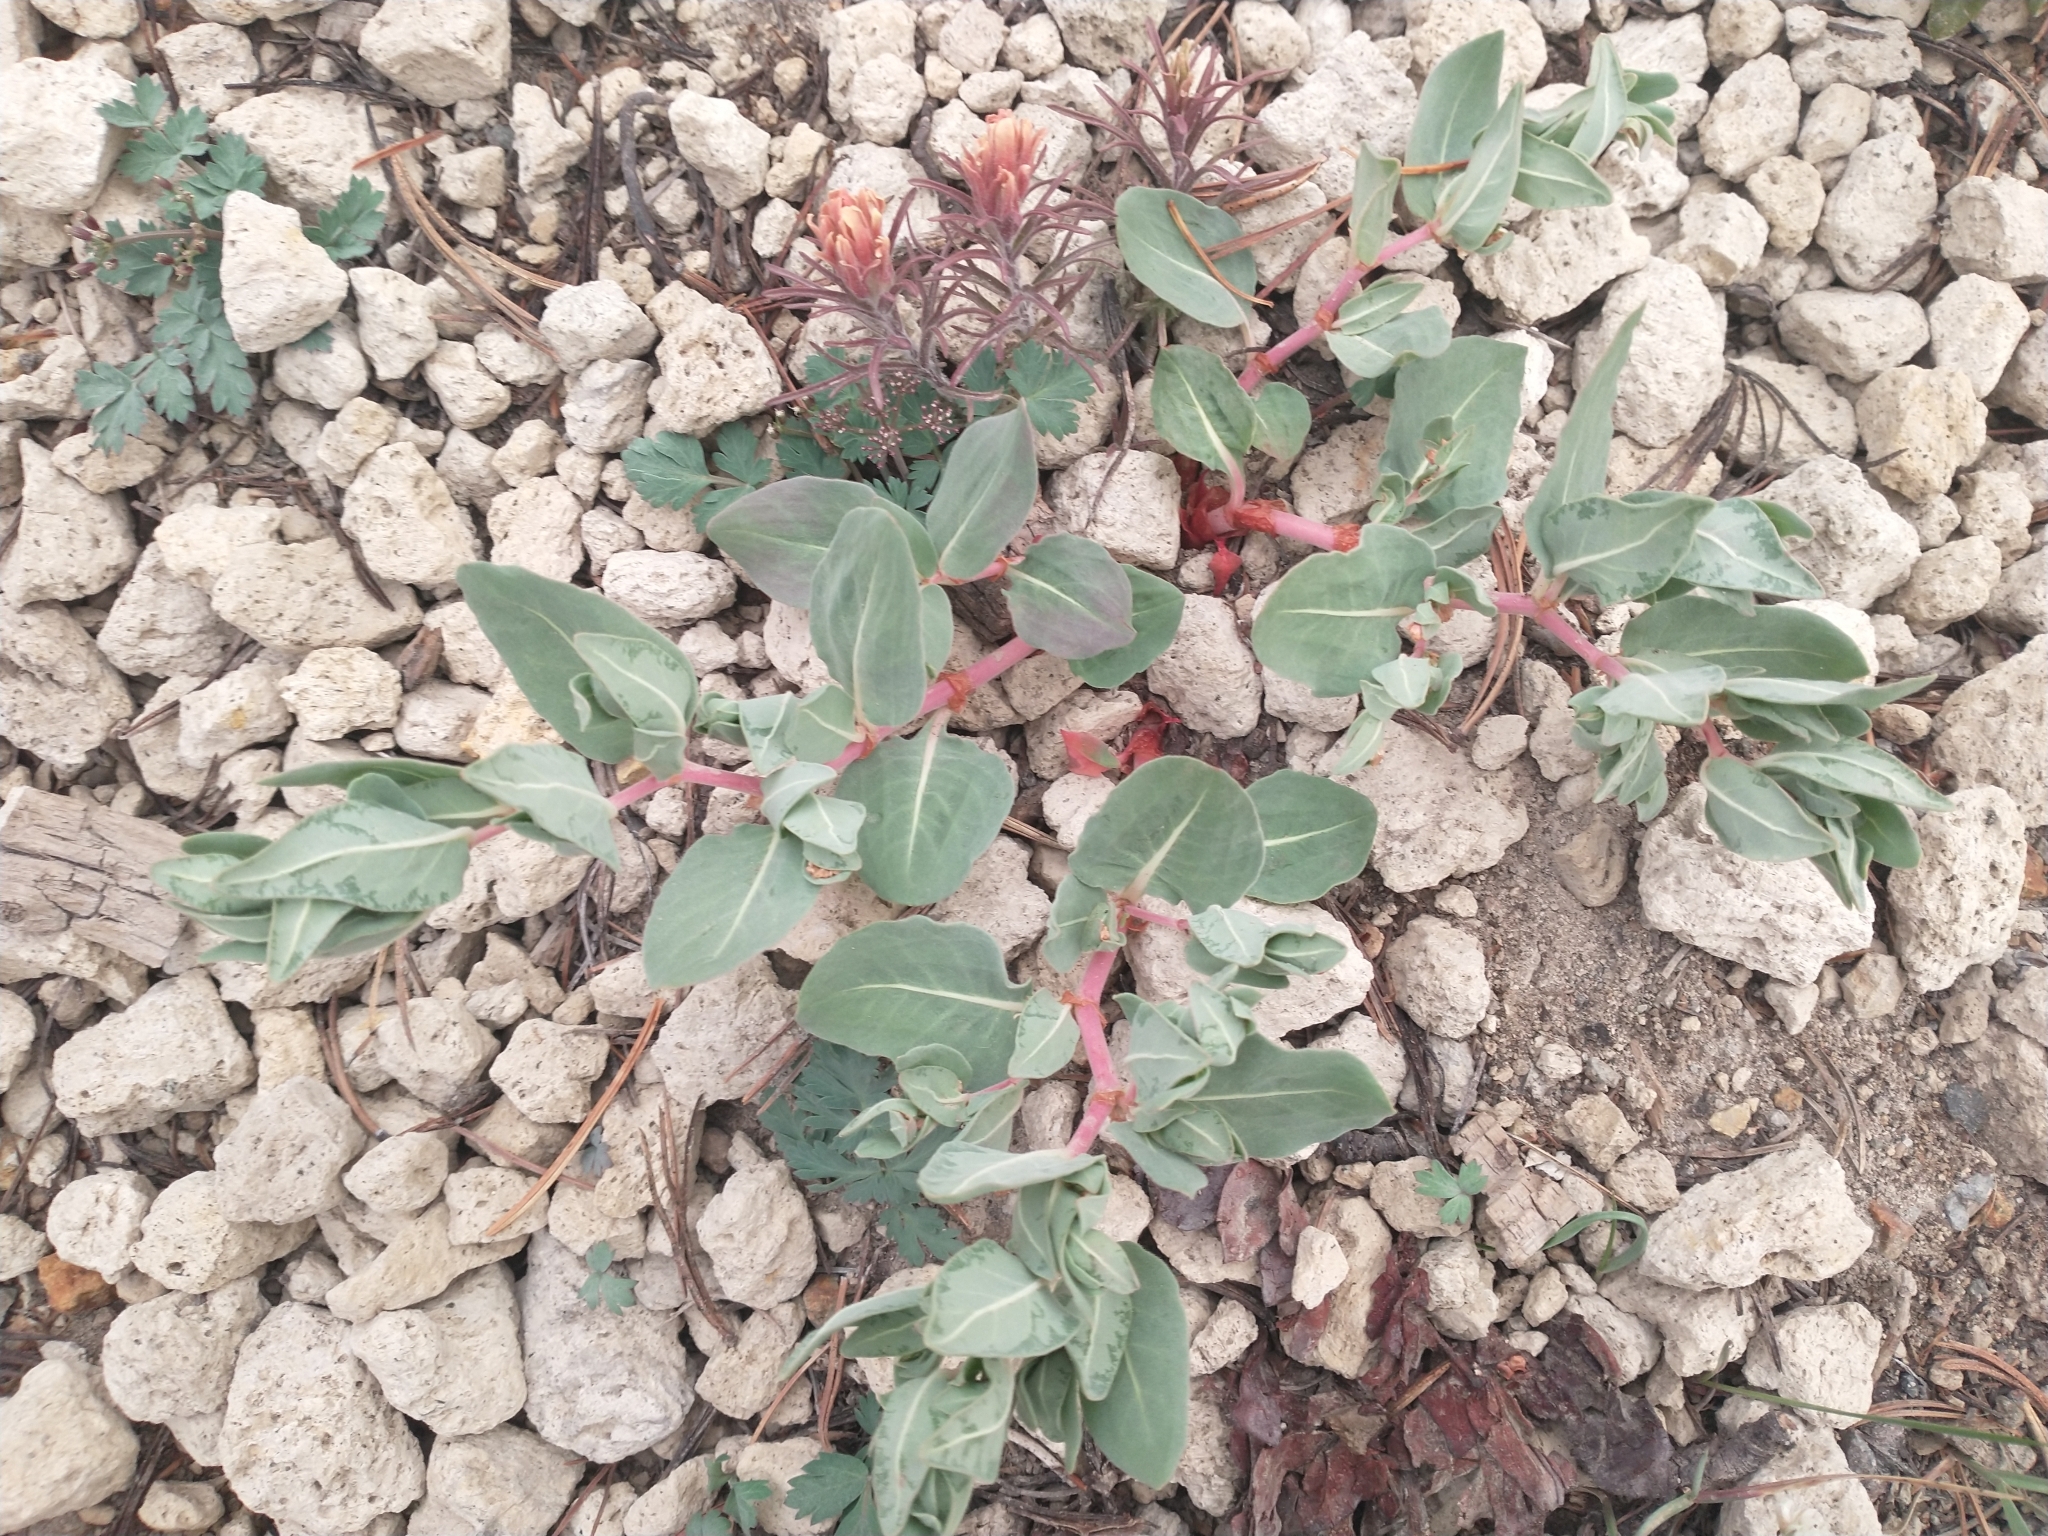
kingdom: Plantae
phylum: Tracheophyta
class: Magnoliopsida
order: Caryophyllales
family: Polygonaceae
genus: Koenigia
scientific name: Koenigia davisiae
